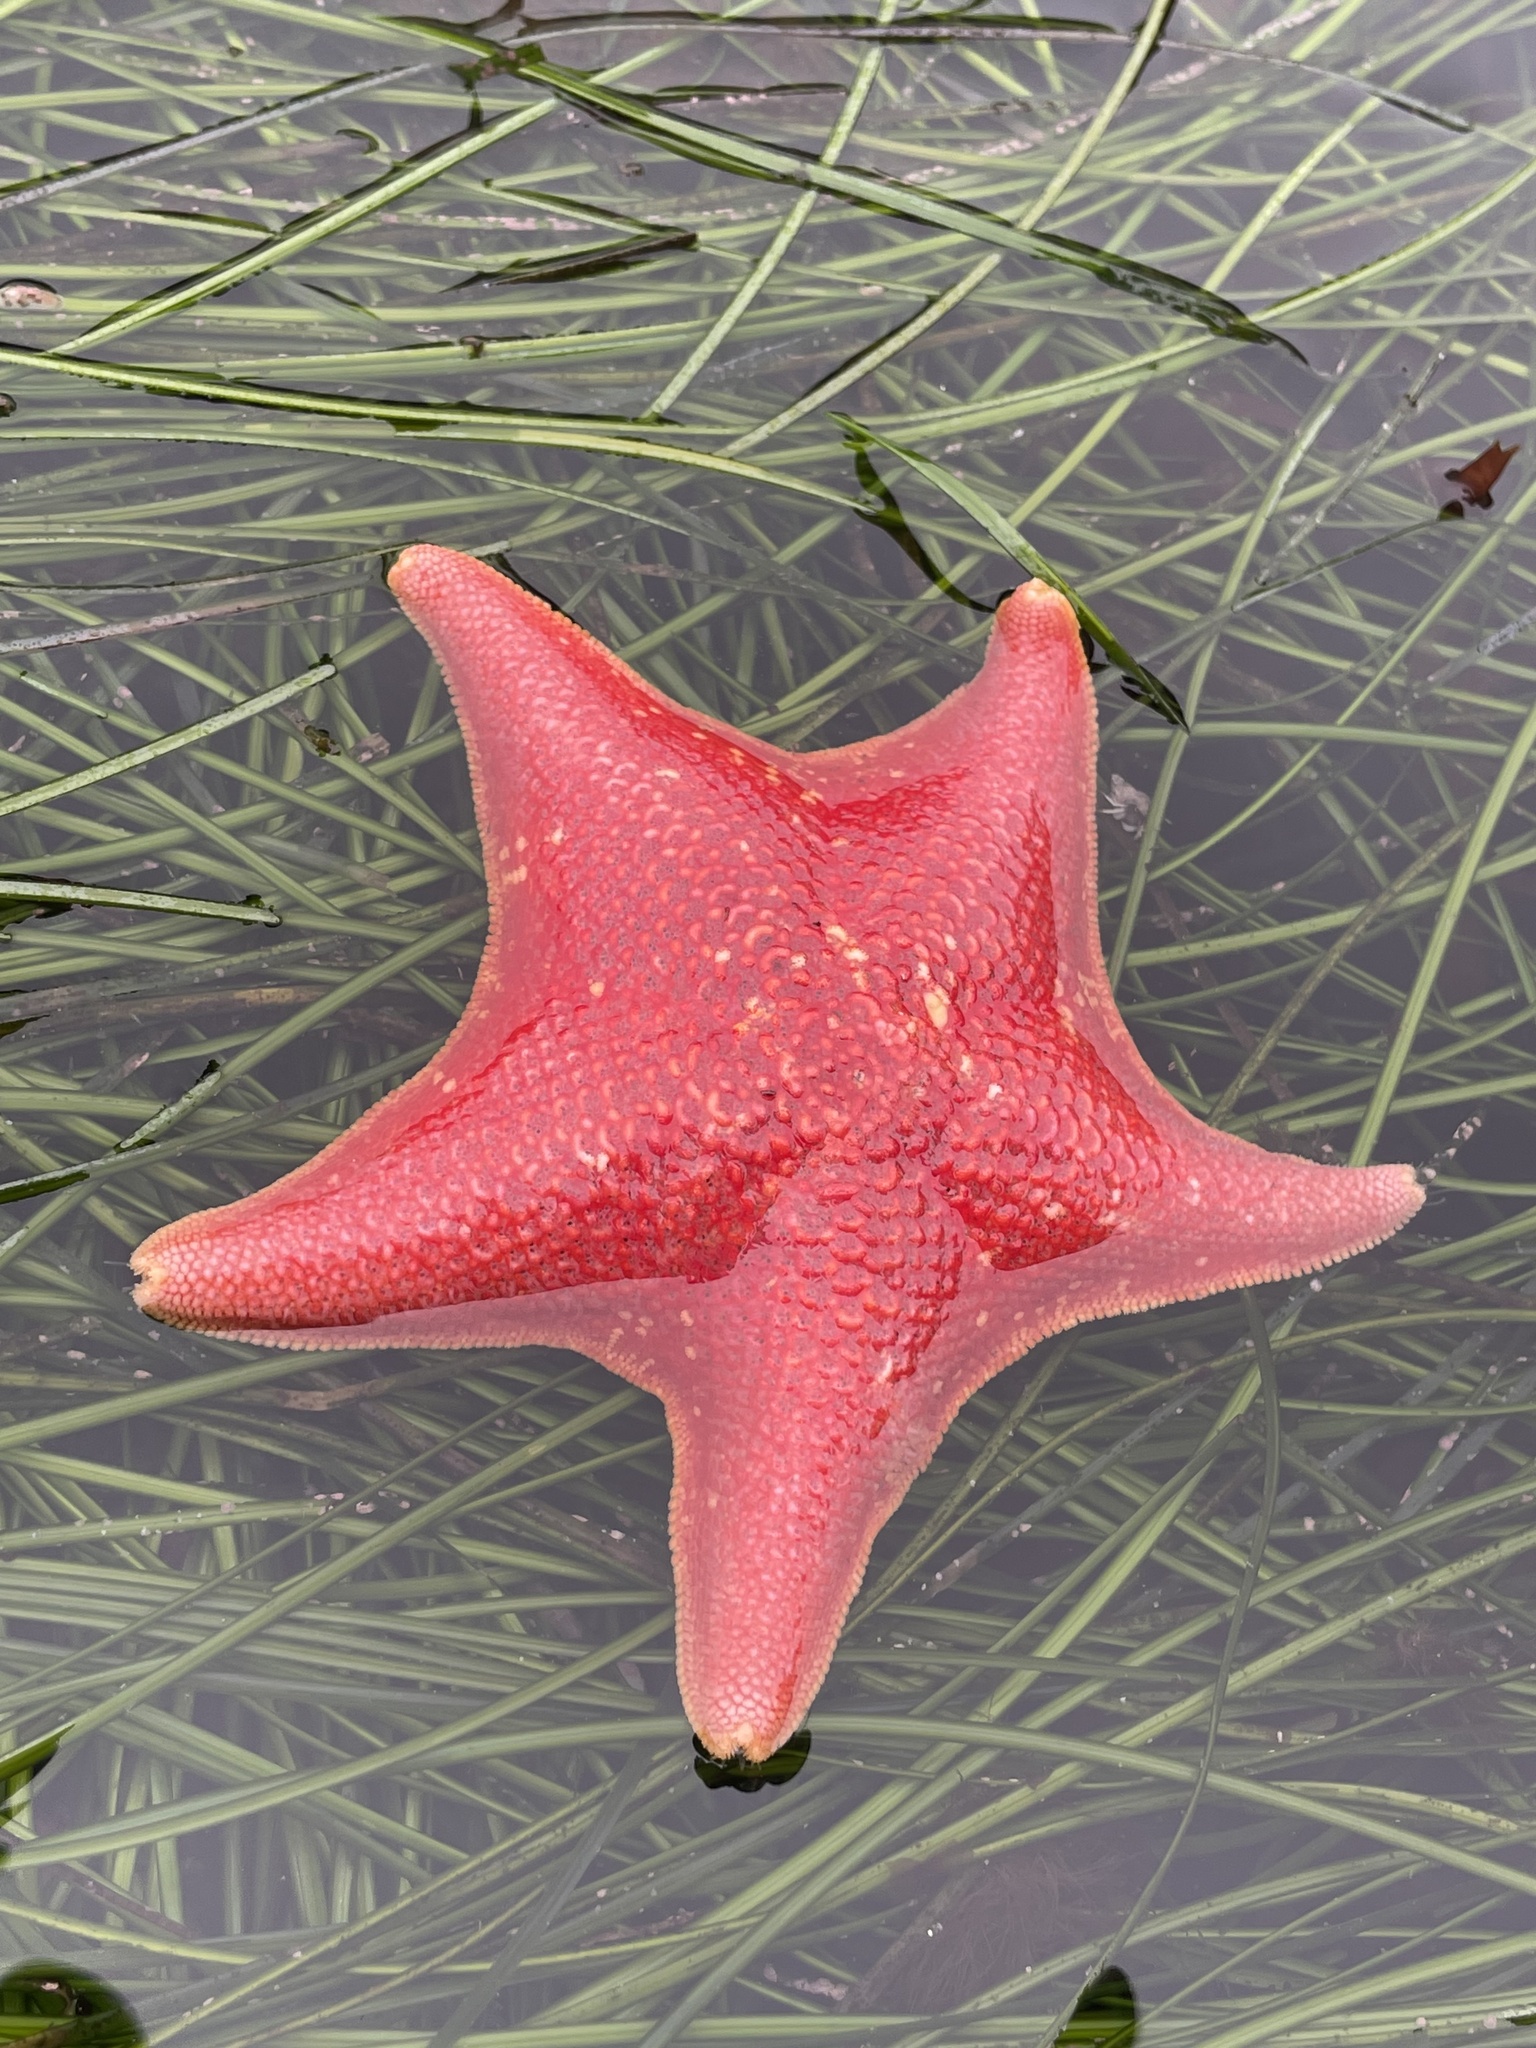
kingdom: Animalia
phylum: Echinodermata
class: Asteroidea
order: Valvatida
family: Asterinidae
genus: Patiria
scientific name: Patiria miniata
